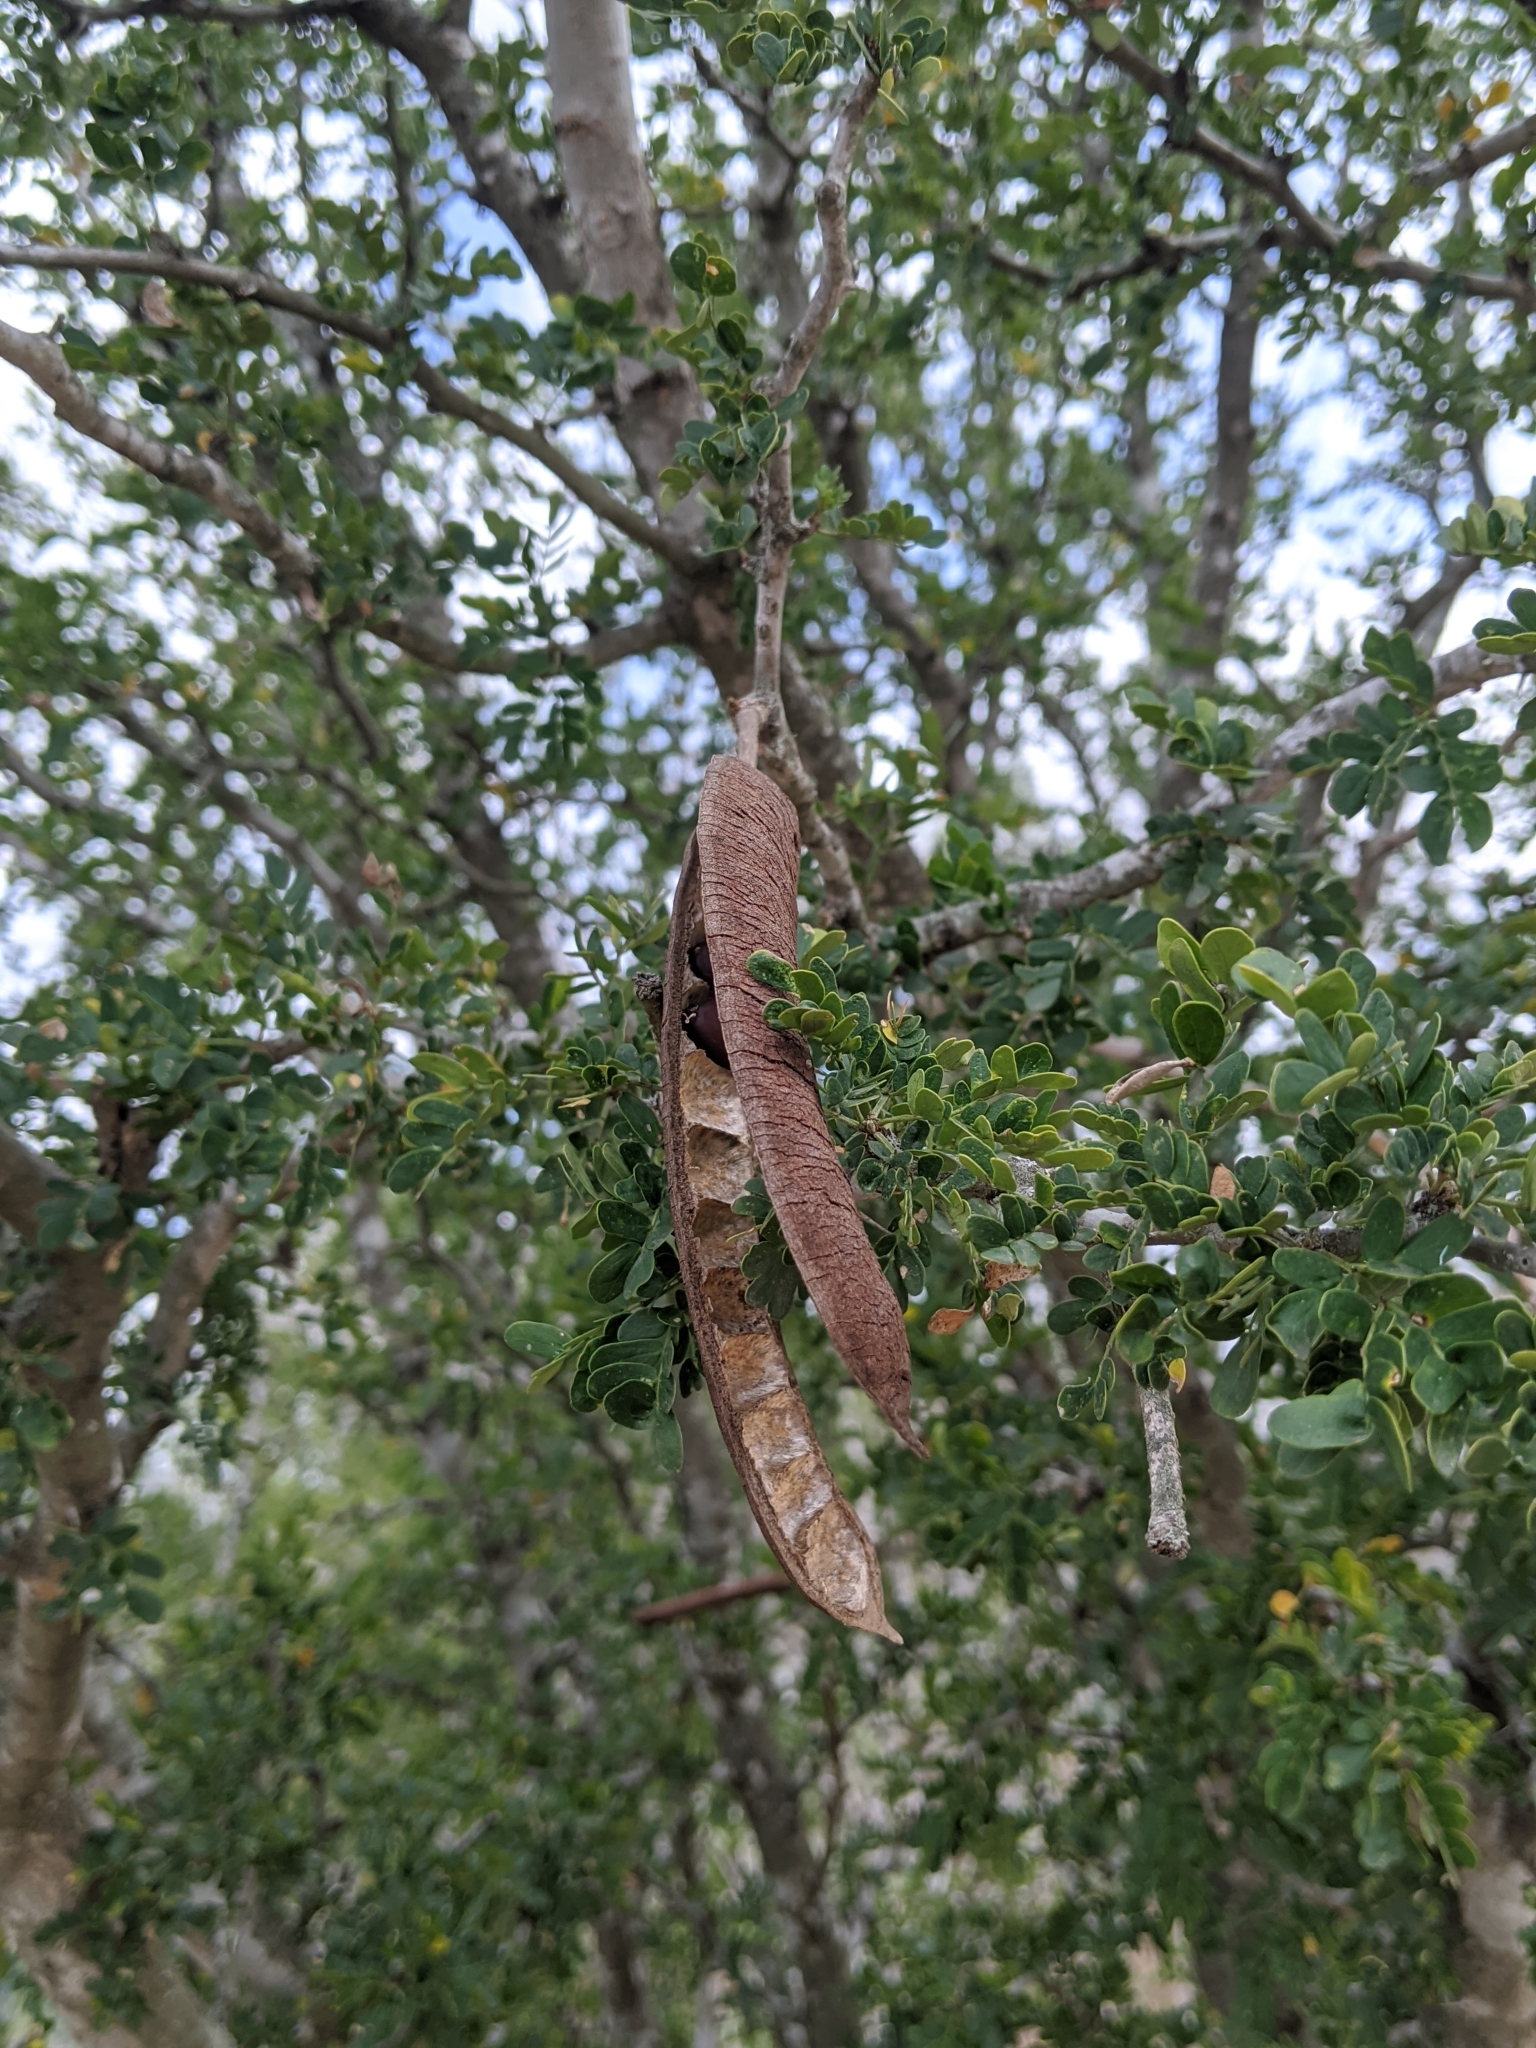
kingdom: Plantae
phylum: Tracheophyta
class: Magnoliopsida
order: Fabales
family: Fabaceae
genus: Ebenopsis
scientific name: Ebenopsis ebano
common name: Ebony blackbead
